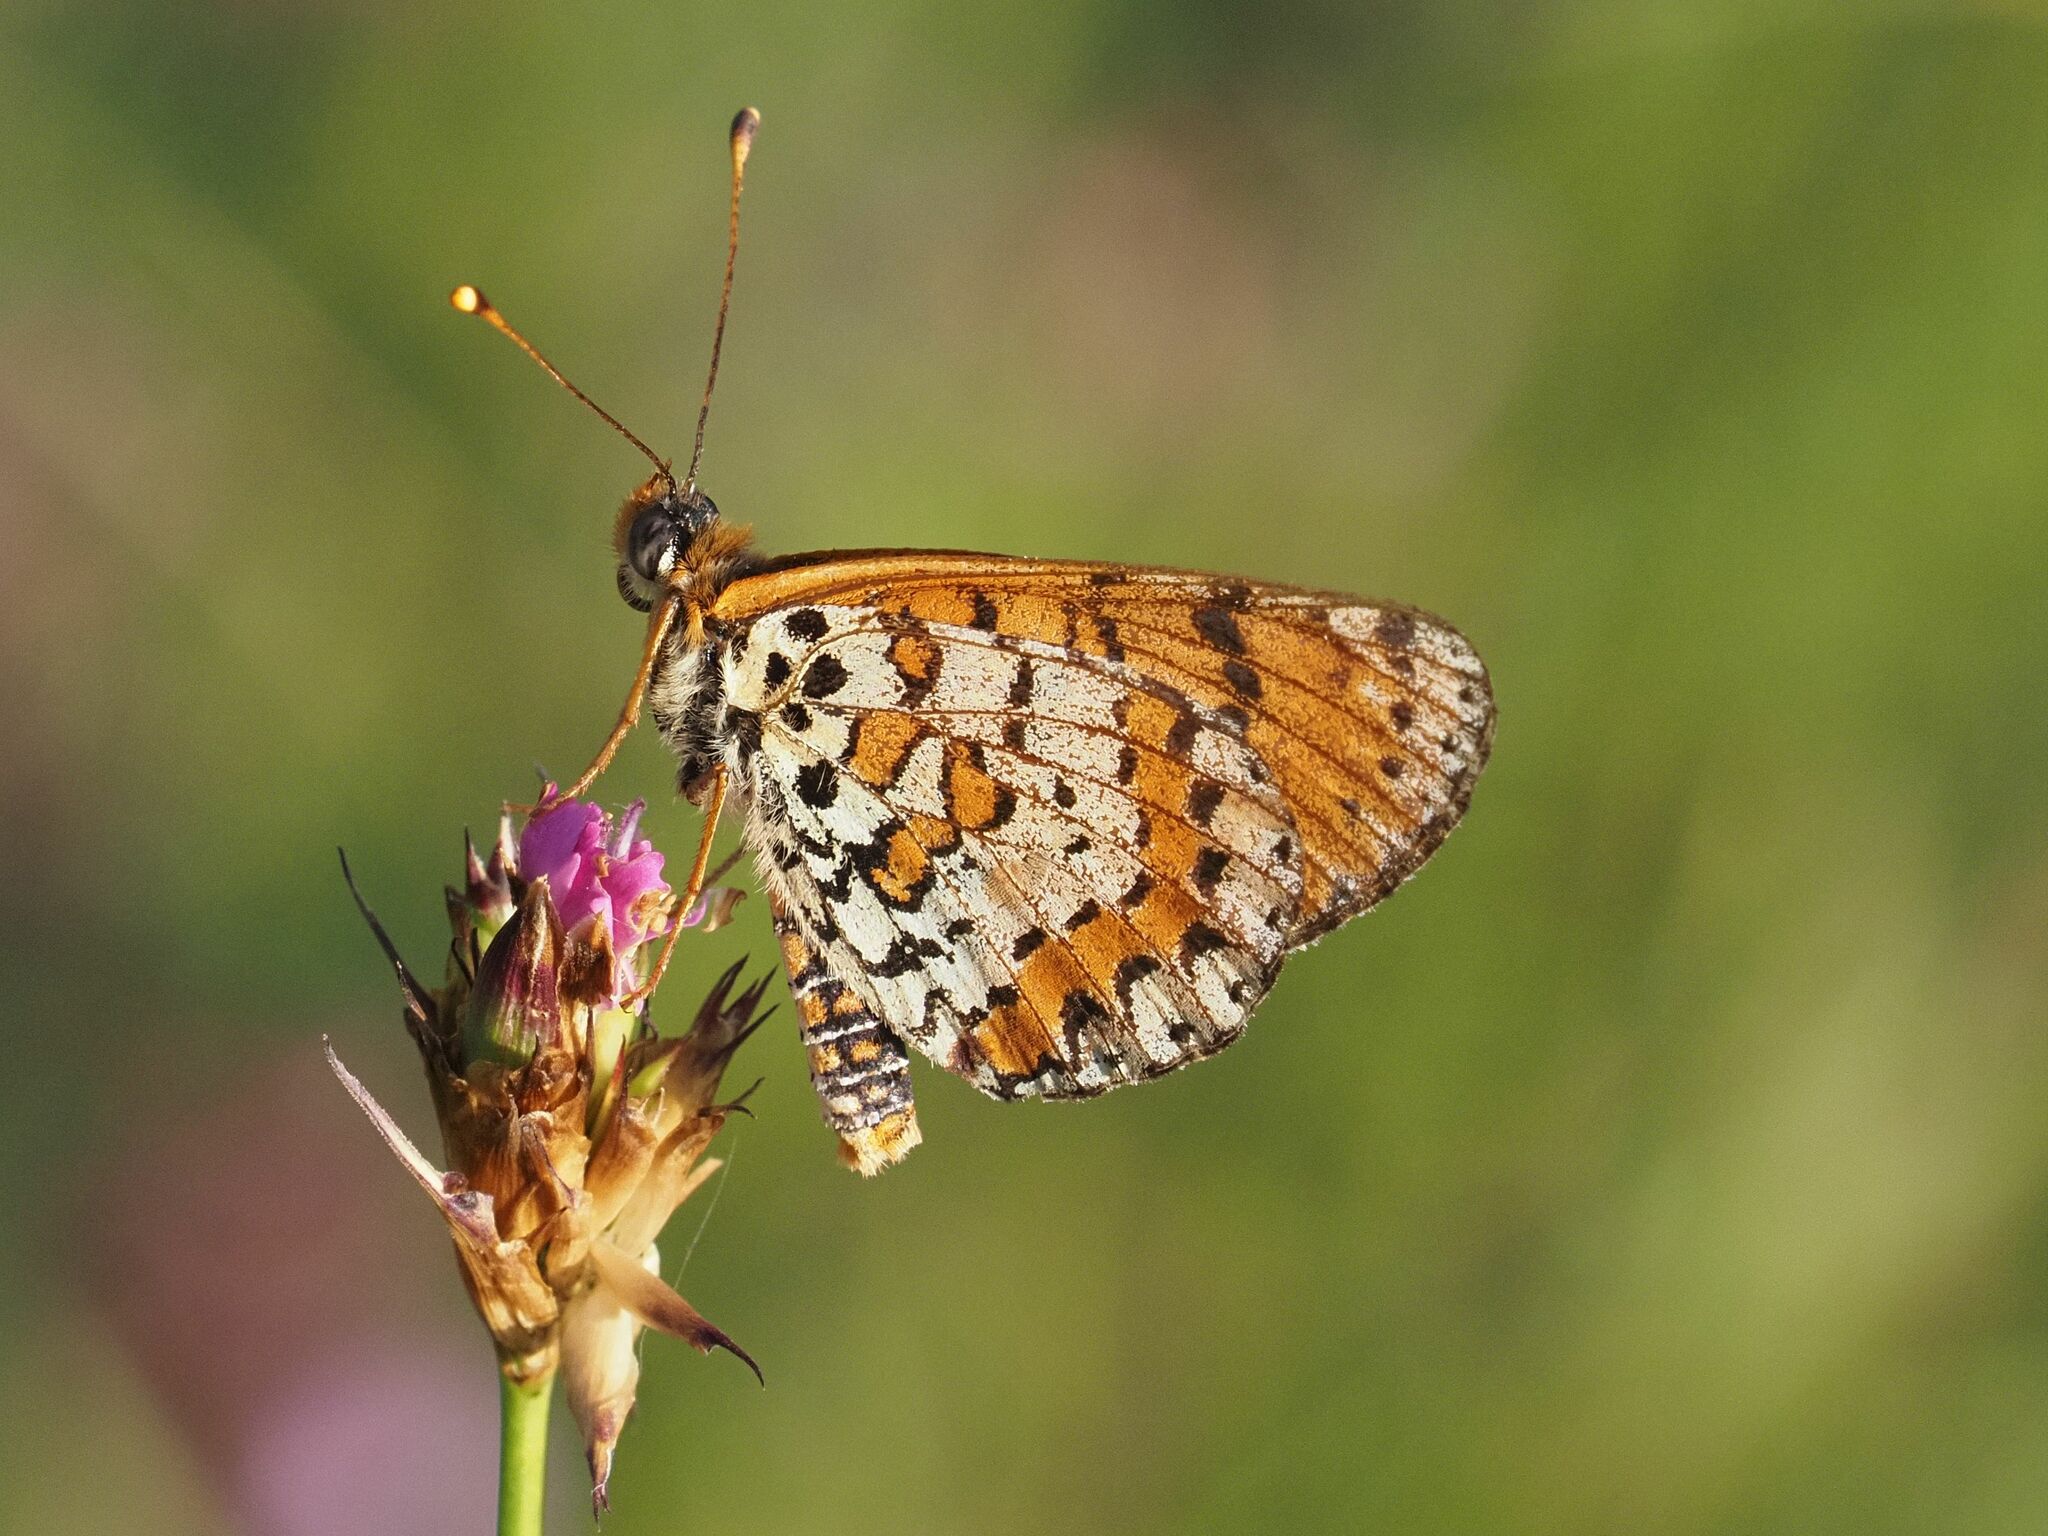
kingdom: Animalia
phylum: Arthropoda
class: Insecta
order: Lepidoptera
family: Nymphalidae
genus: Melitaea
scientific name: Melitaea didyma
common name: Spotted fritillary
